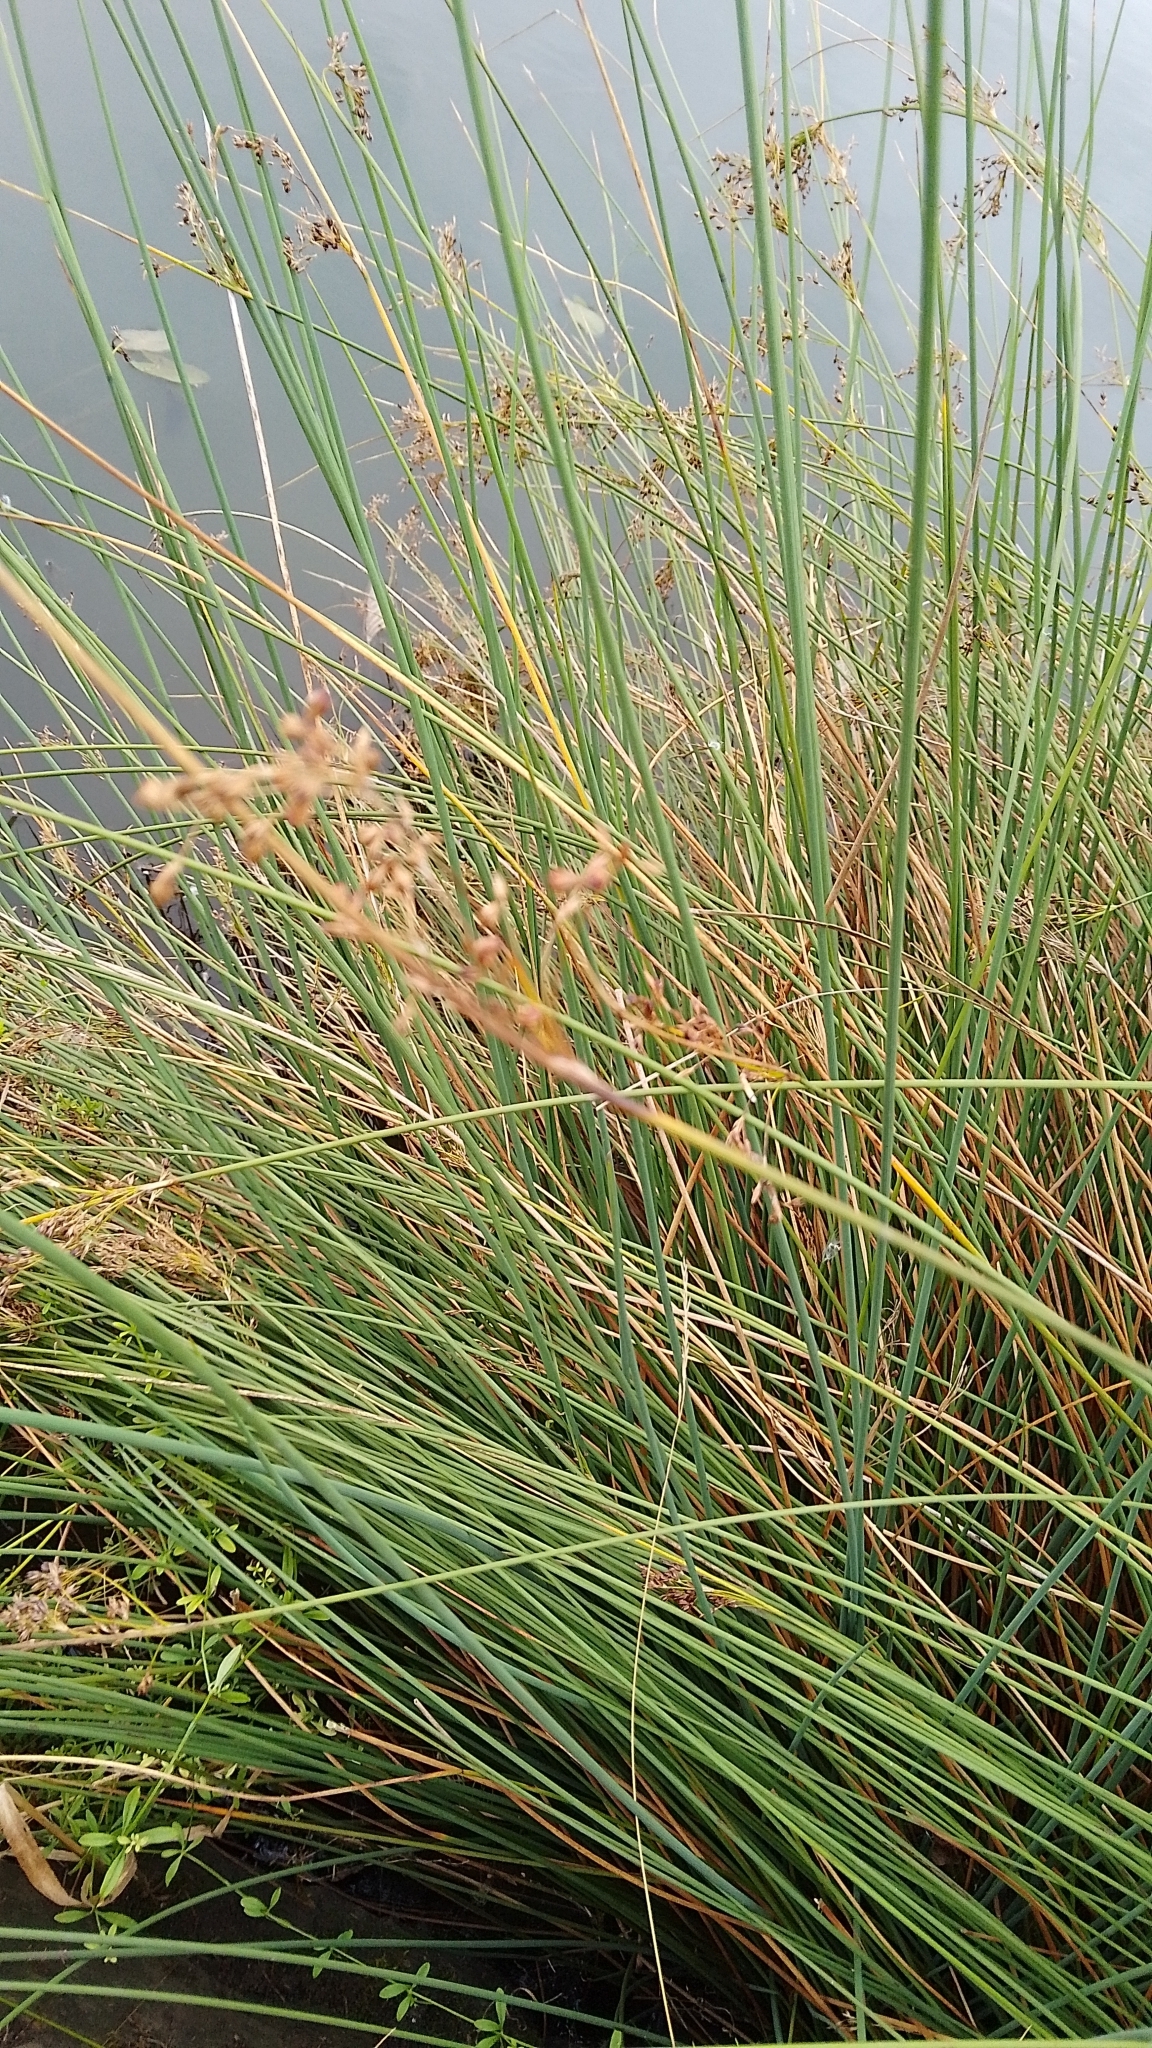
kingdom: Plantae
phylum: Tracheophyta
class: Liliopsida
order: Poales
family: Juncaceae
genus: Juncus
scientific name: Juncus inflexus
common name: Hard rush
